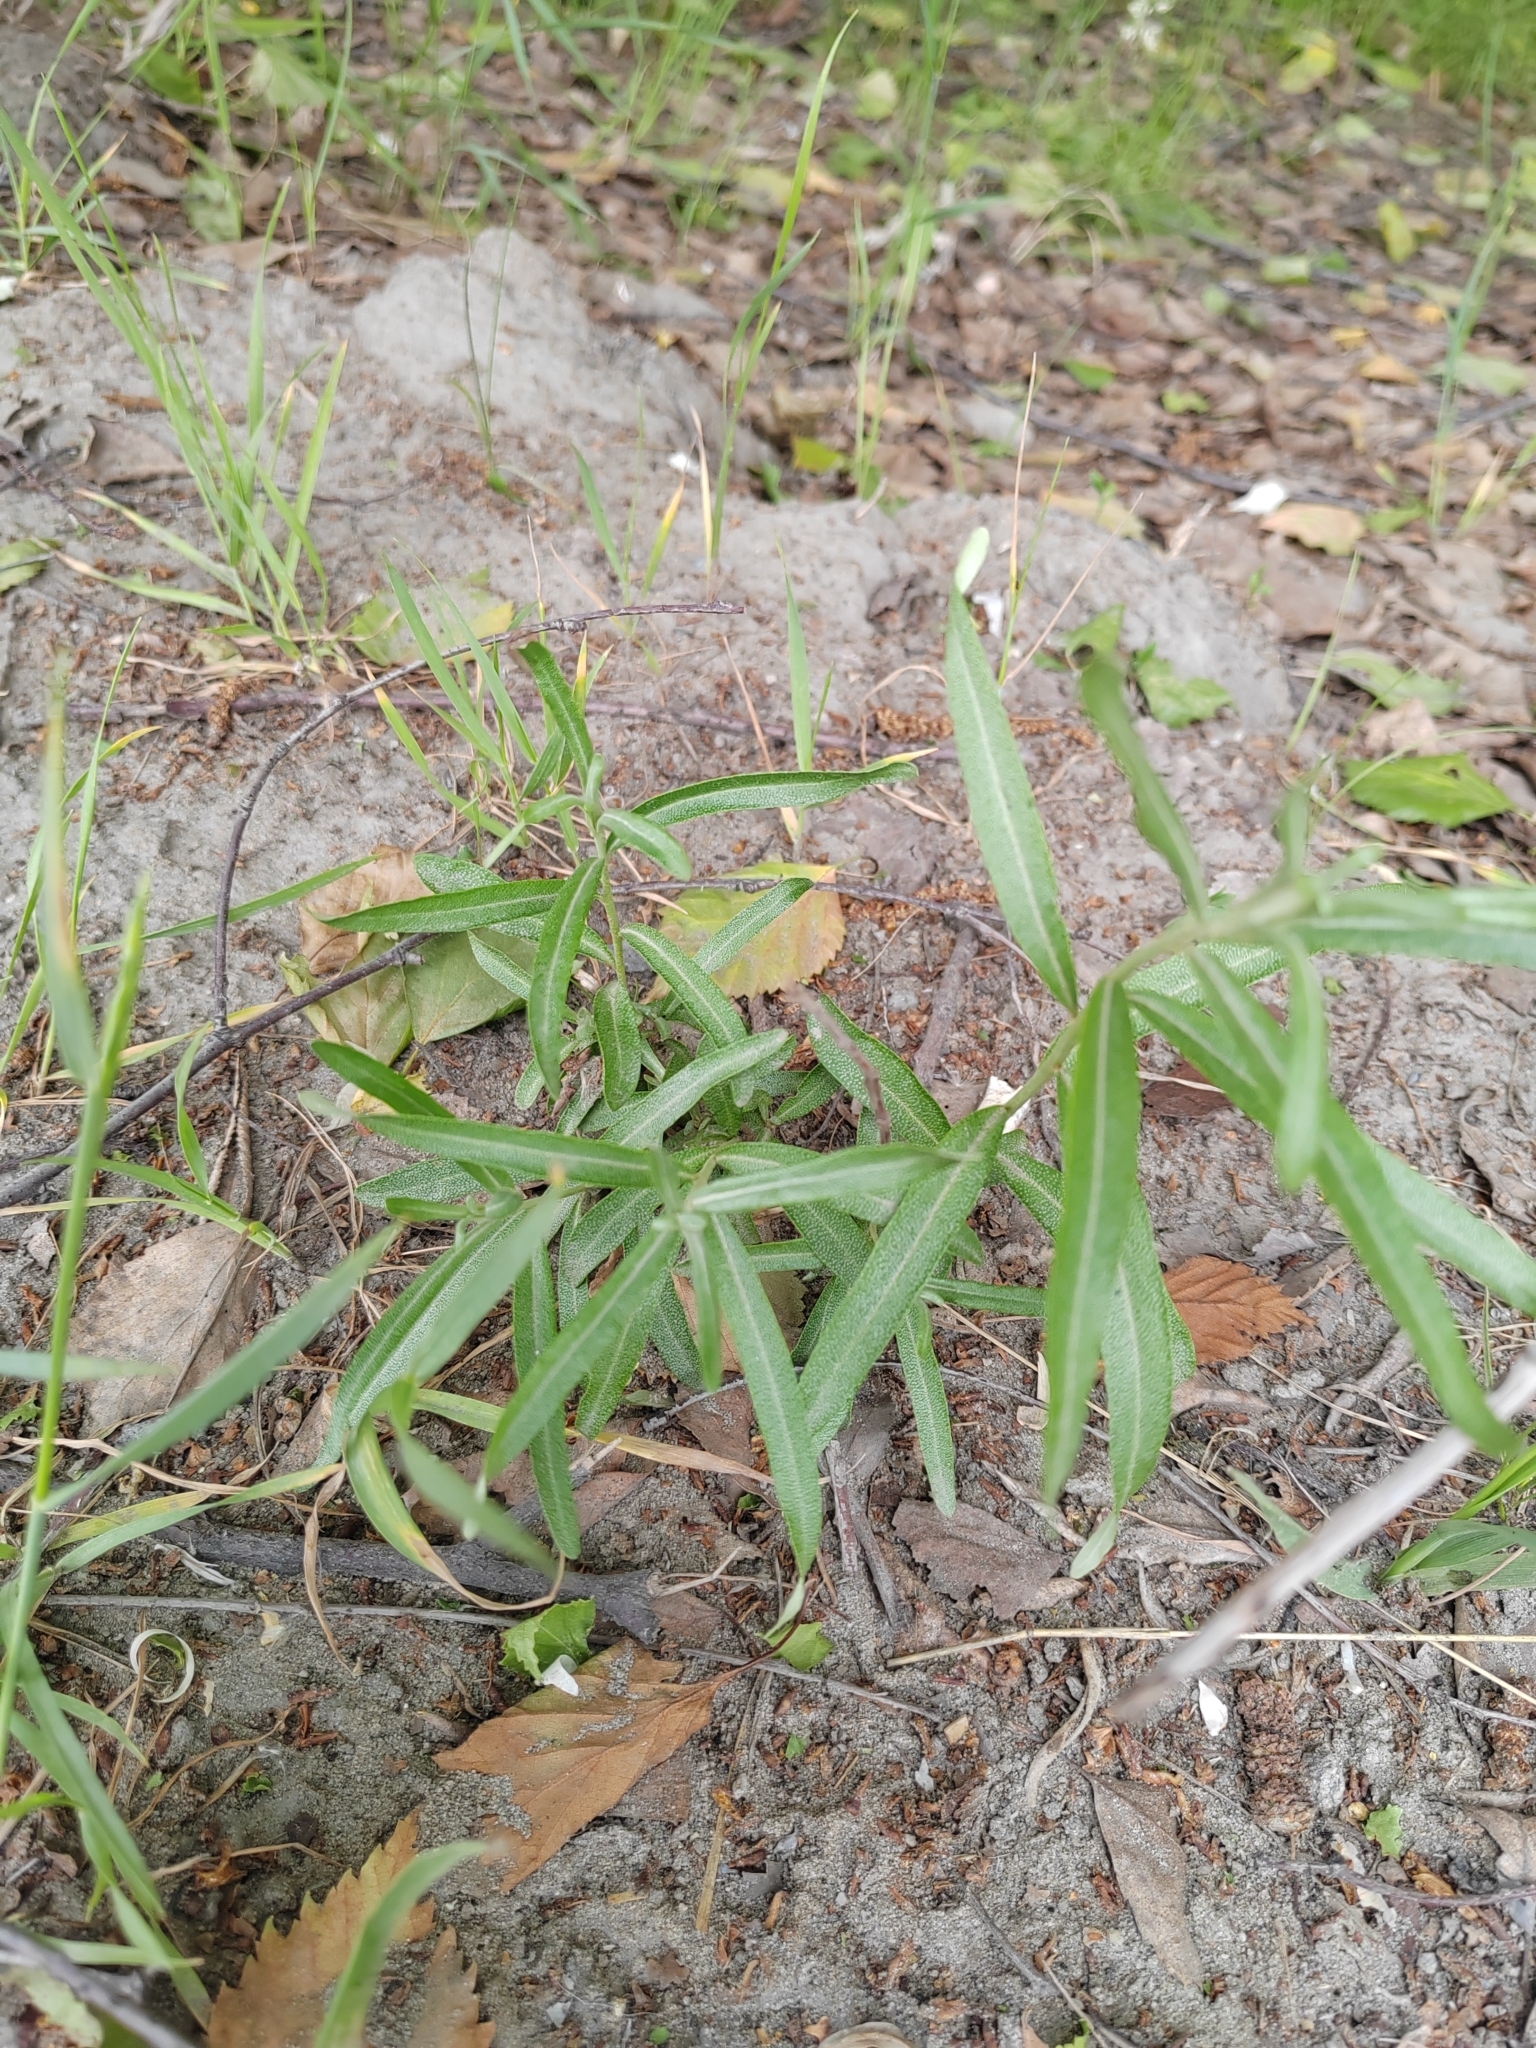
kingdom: Plantae
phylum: Tracheophyta
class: Magnoliopsida
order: Rosales
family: Elaeagnaceae
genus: Hippophae
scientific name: Hippophae rhamnoides
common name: Sea-buckthorn
